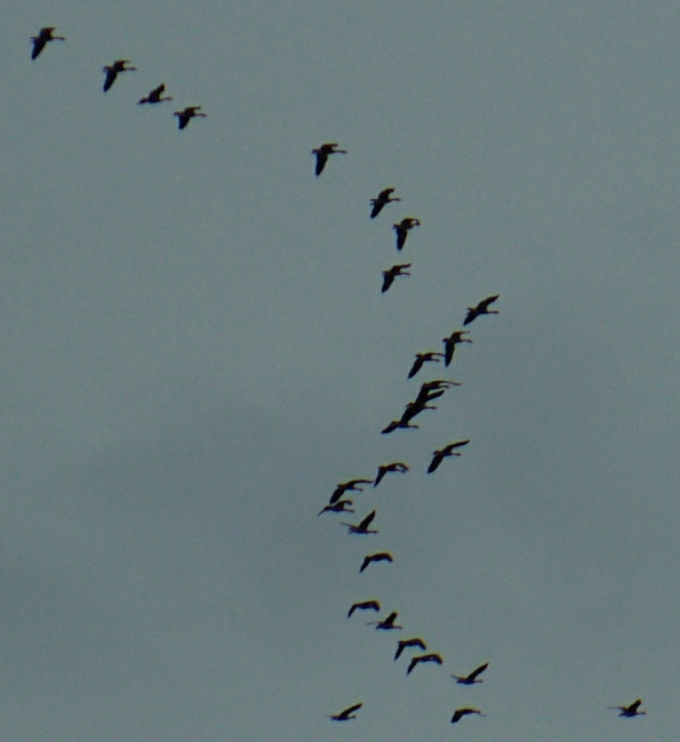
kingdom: Animalia
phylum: Chordata
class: Aves
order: Anseriformes
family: Anatidae
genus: Branta
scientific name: Branta canadensis
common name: Canada goose
